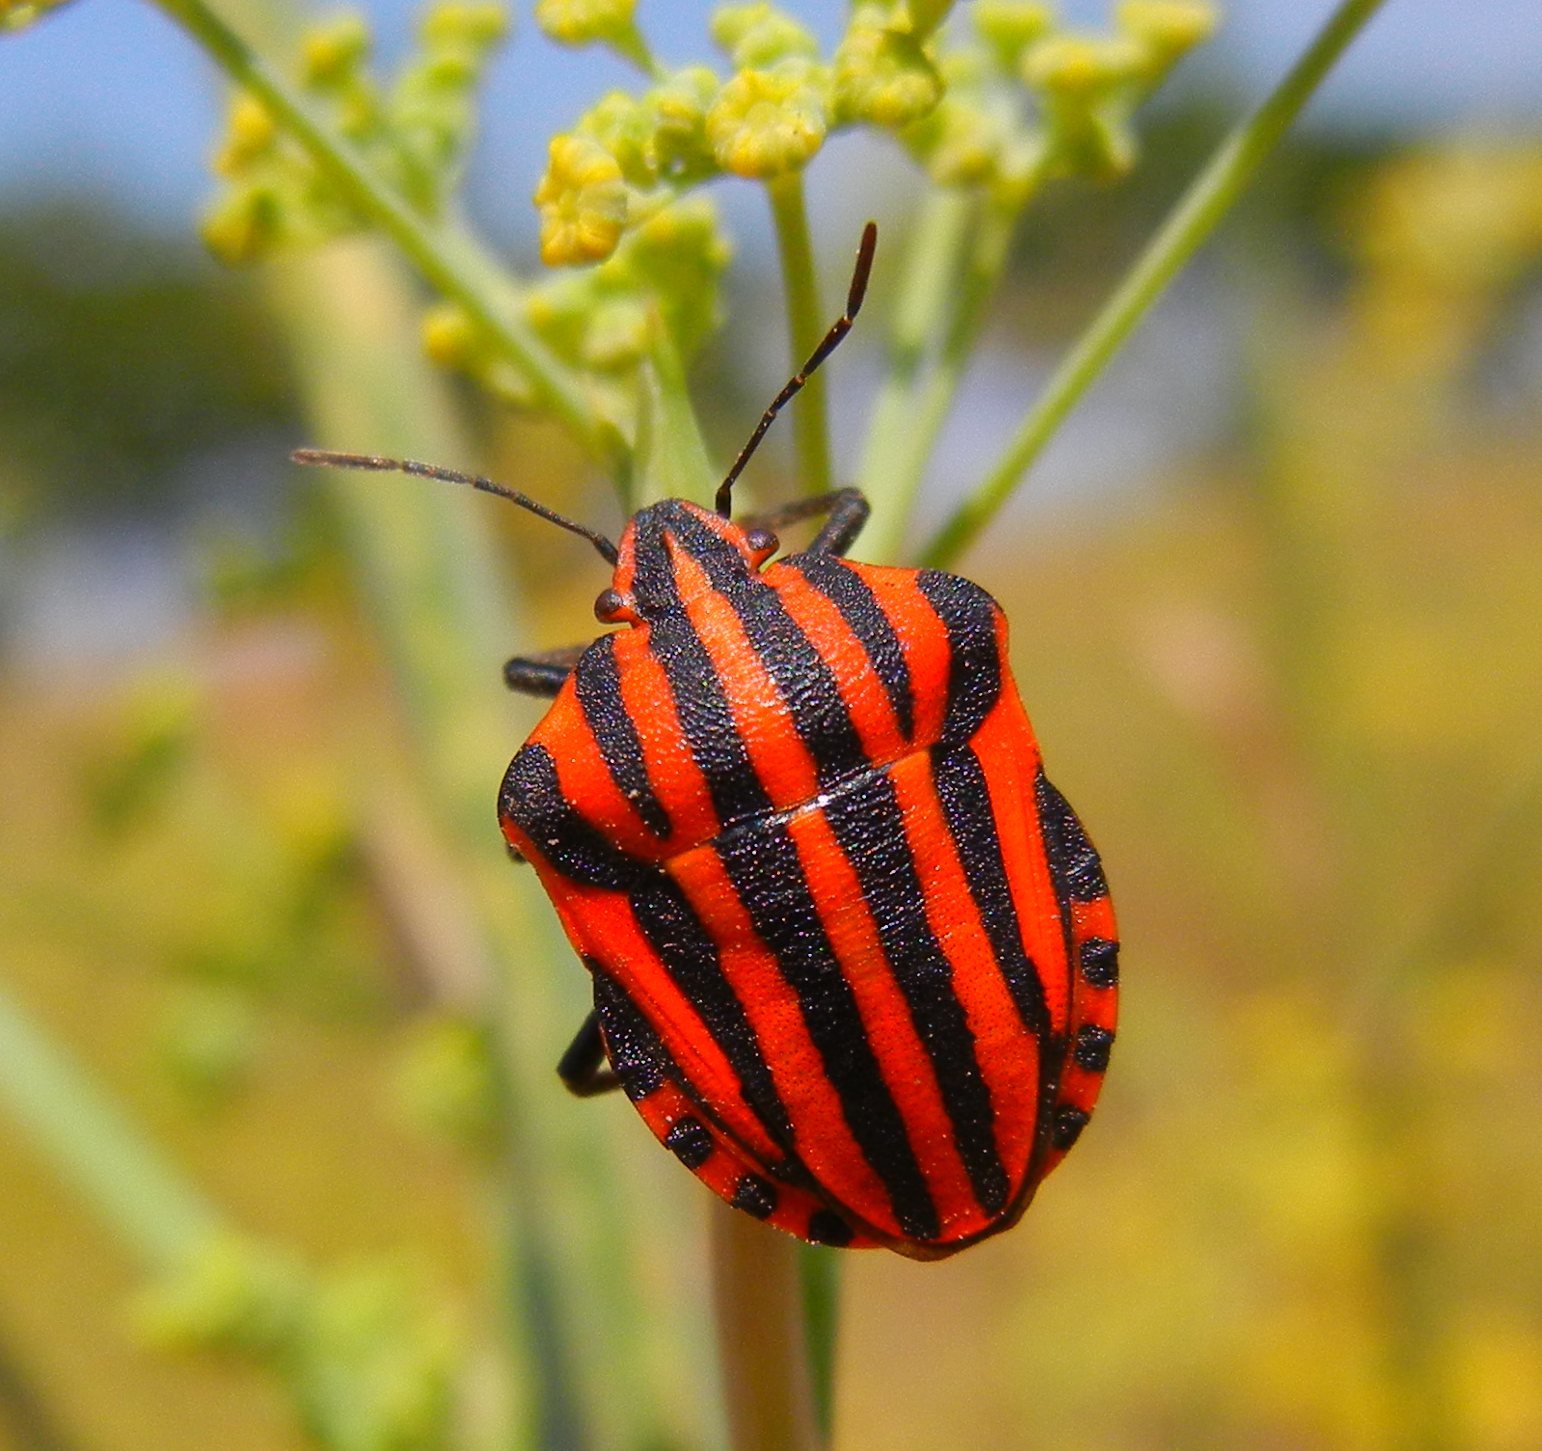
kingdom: Animalia
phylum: Arthropoda
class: Insecta
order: Hemiptera
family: Pentatomidae
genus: Graphosoma
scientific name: Graphosoma italicum
